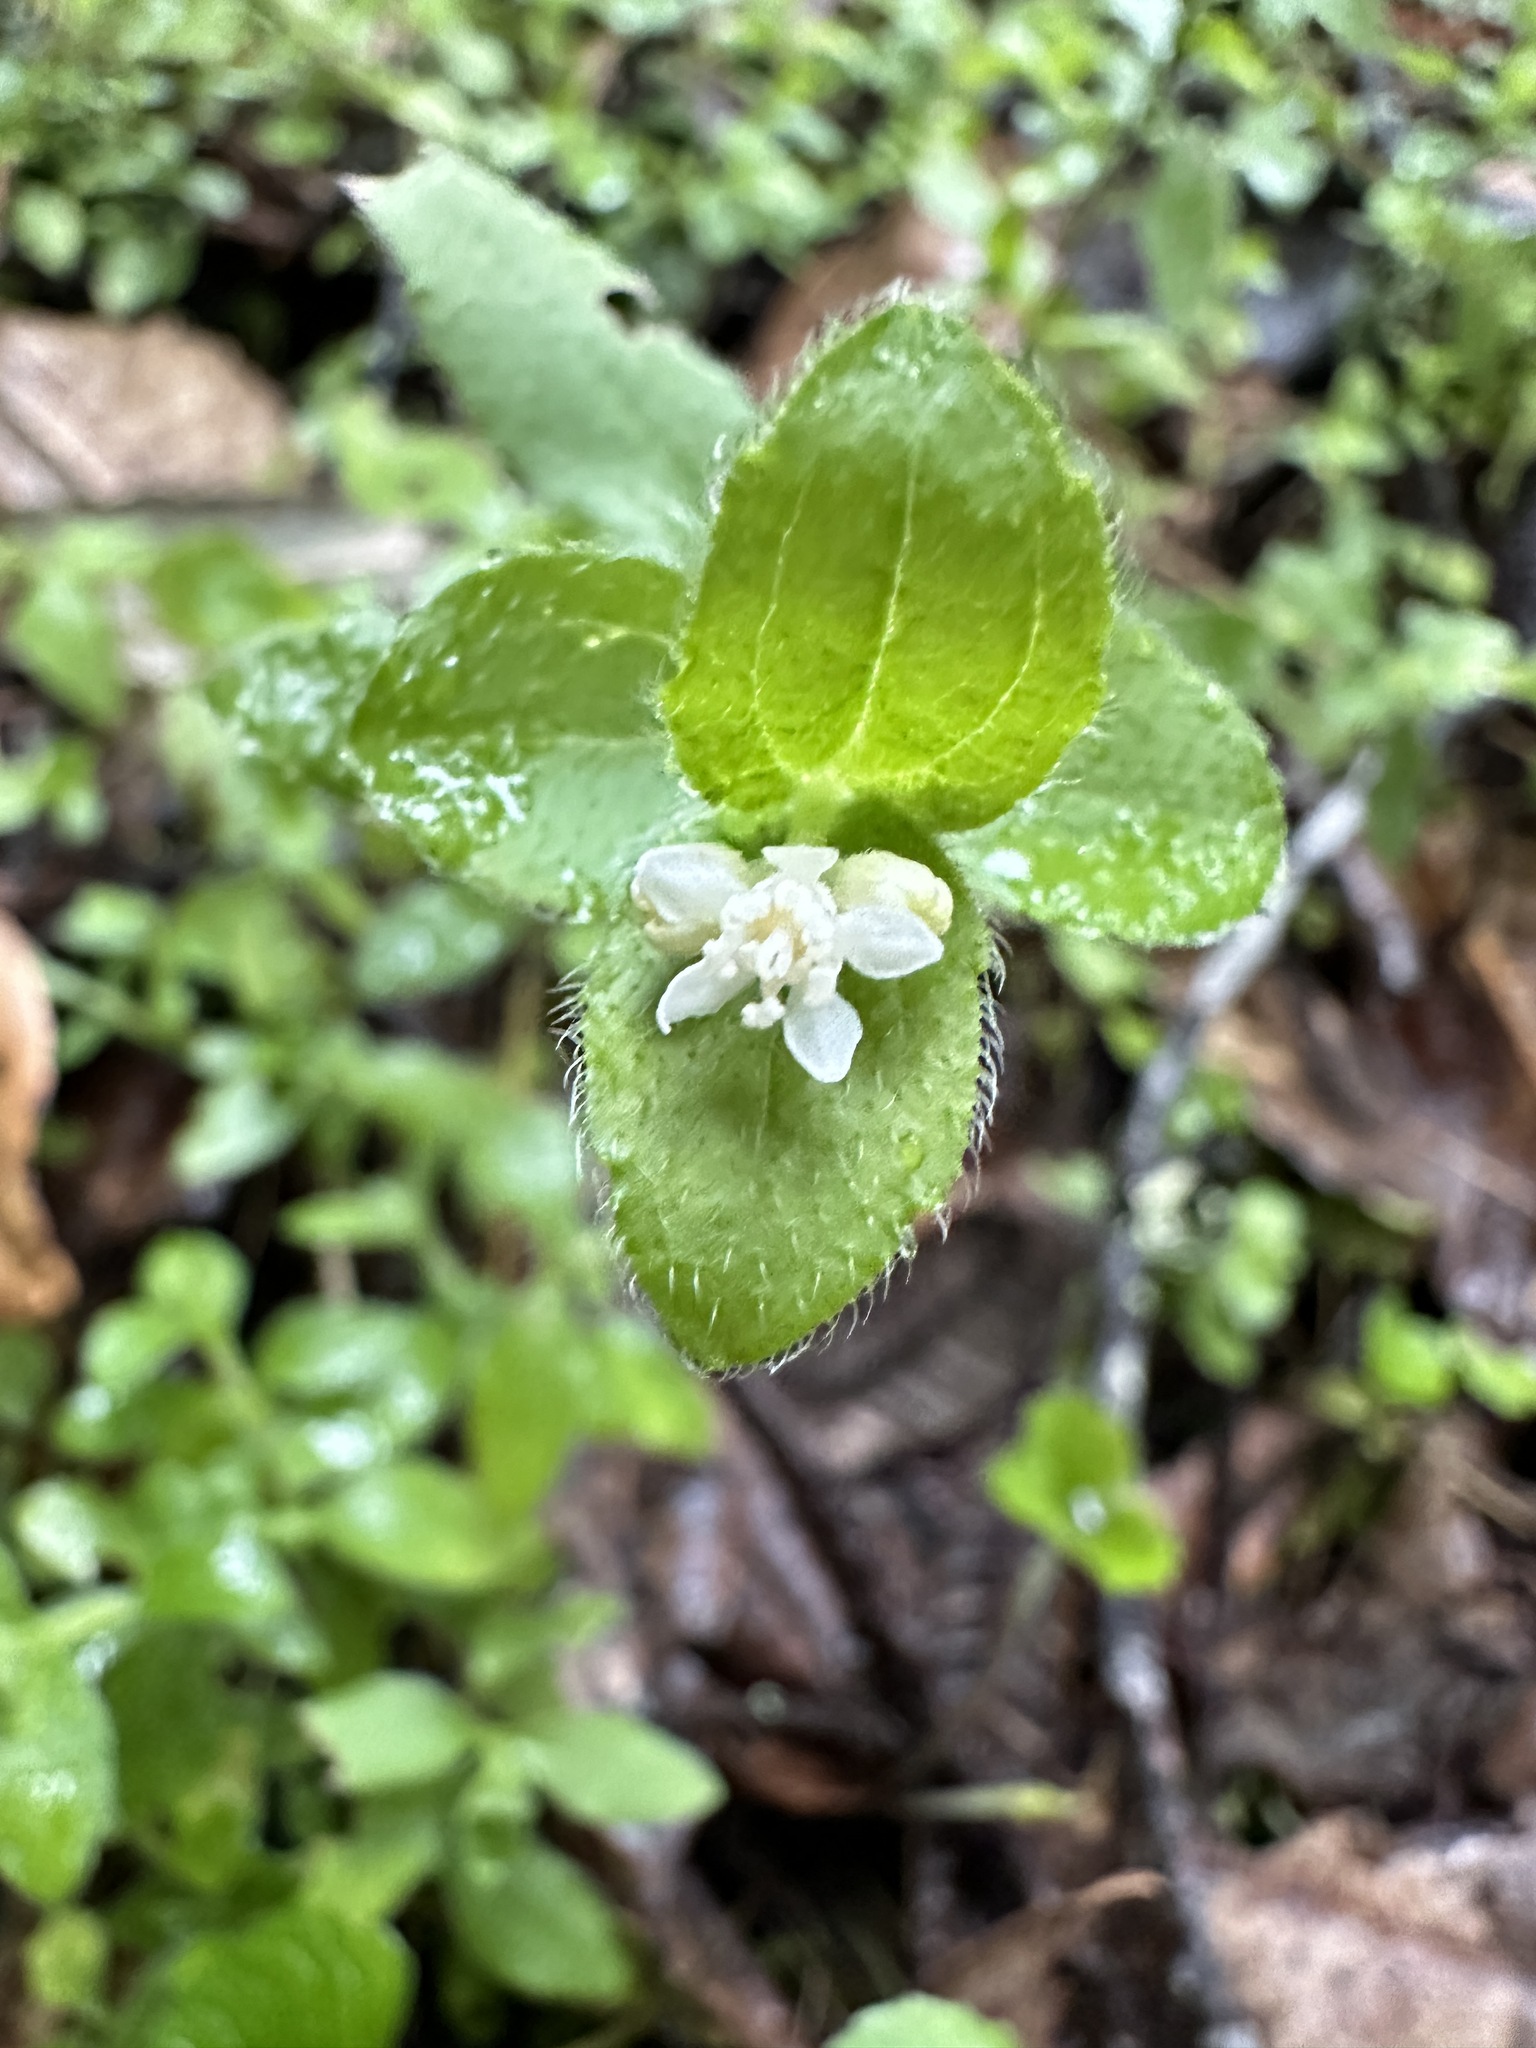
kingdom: Plantae
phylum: Tracheophyta
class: Magnoliopsida
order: Cornales
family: Hydrangeaceae
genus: Whipplea
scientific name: Whipplea modesta
